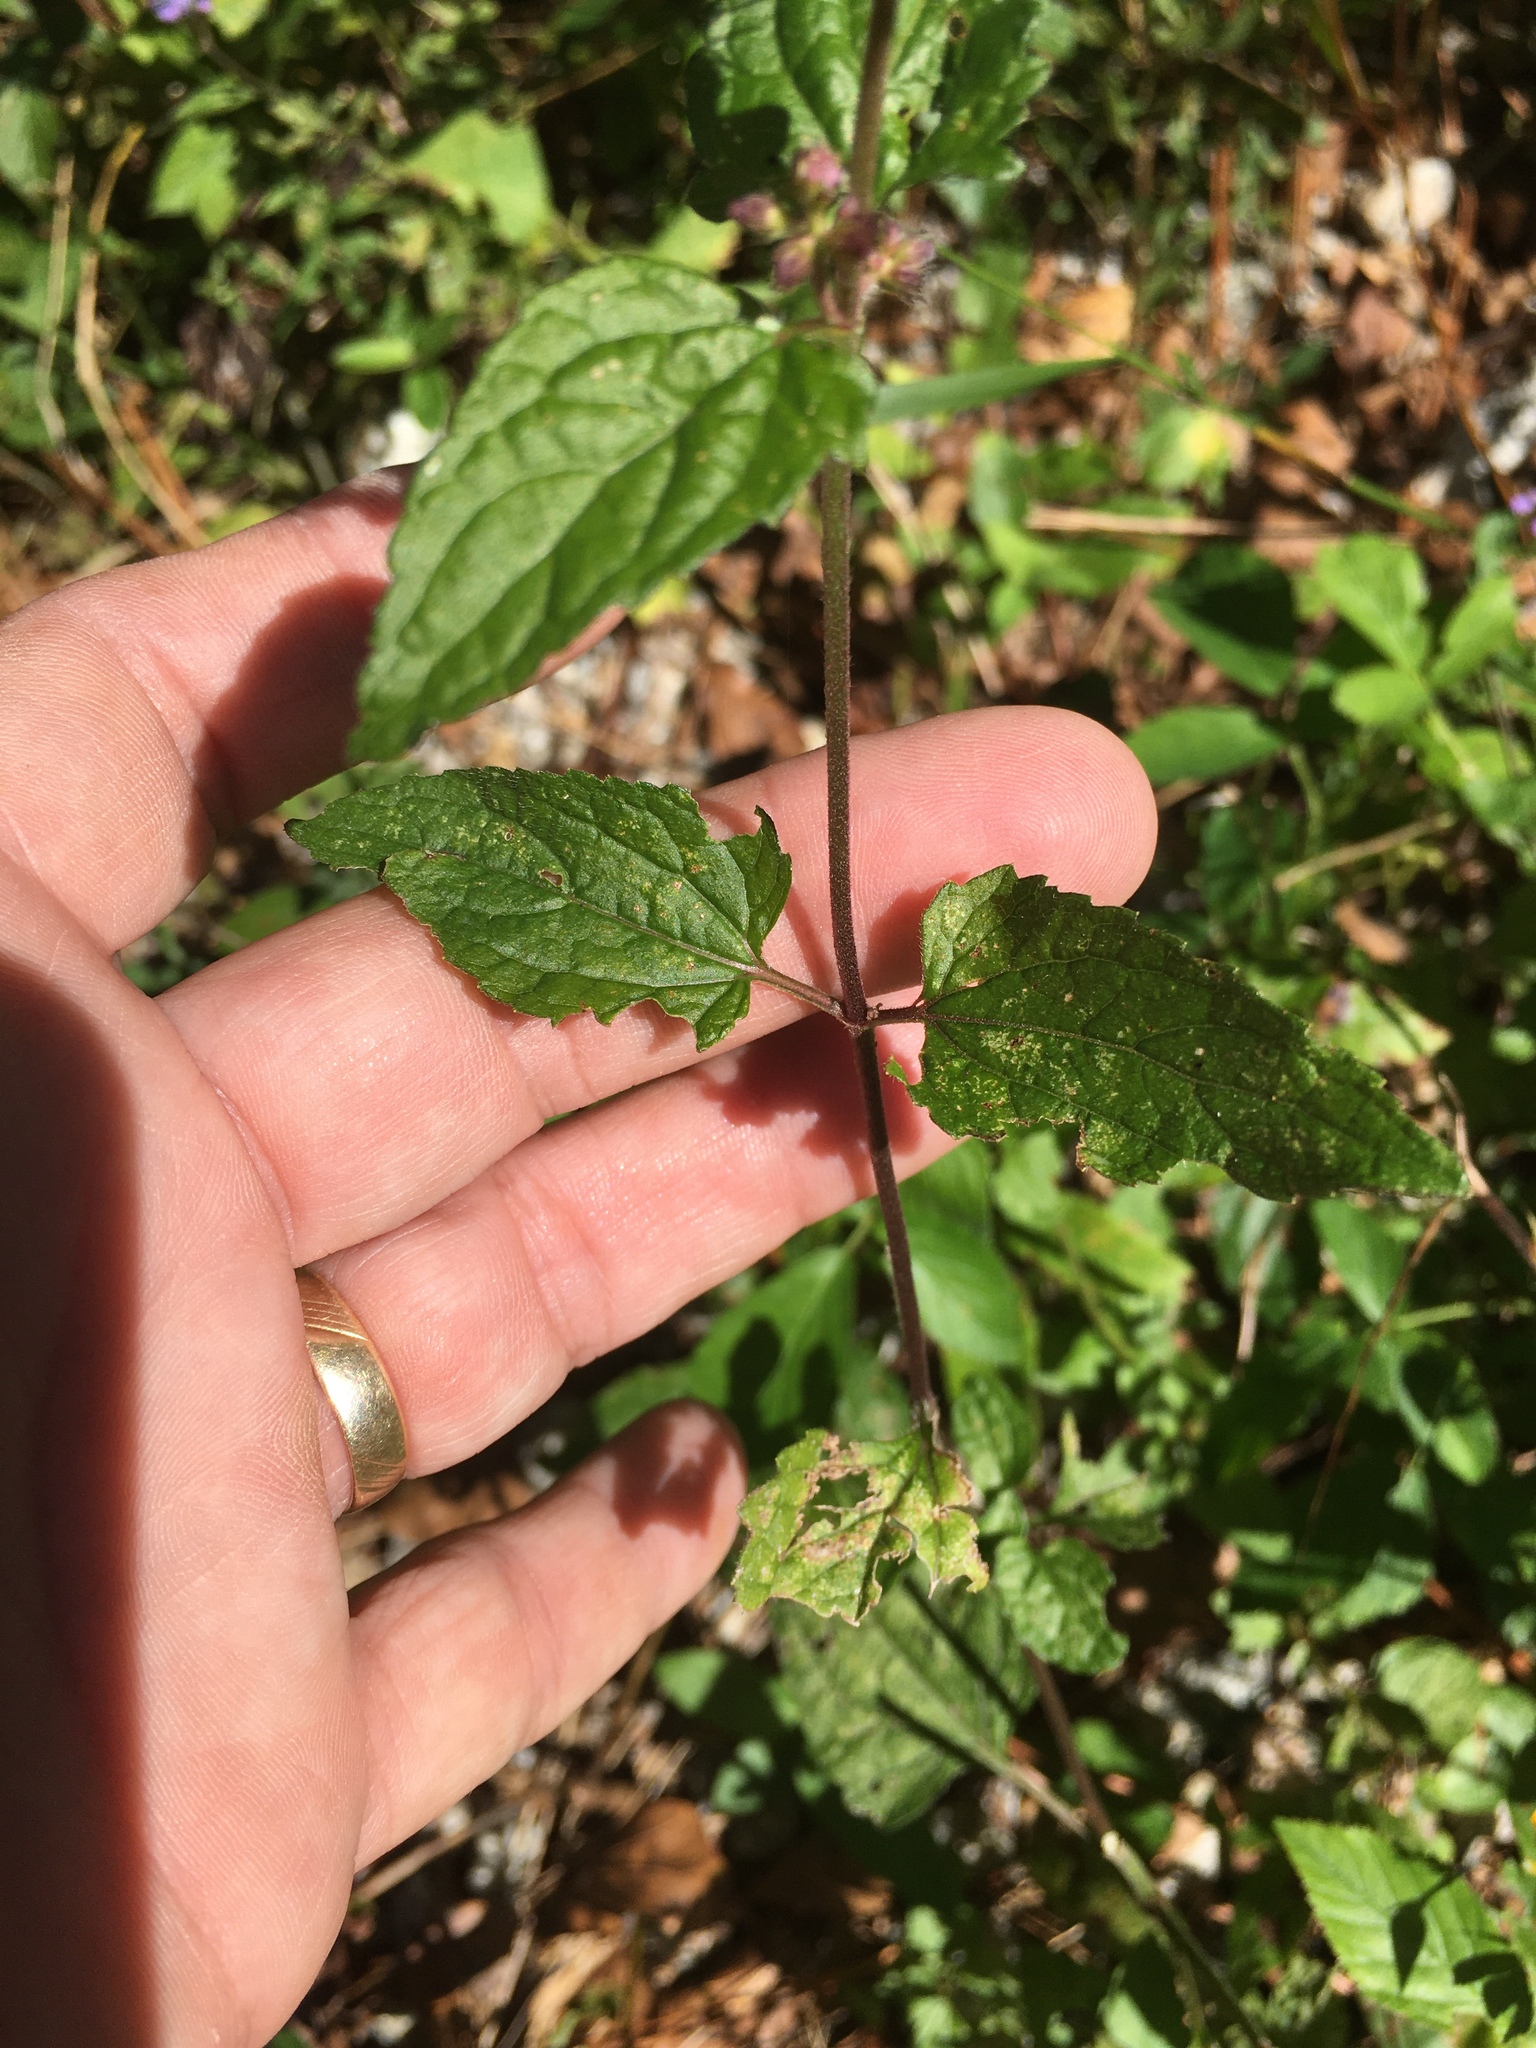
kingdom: Plantae
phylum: Tracheophyta
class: Magnoliopsida
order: Asterales
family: Asteraceae
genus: Conoclinium
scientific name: Conoclinium coelestinum
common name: Blue mistflower
